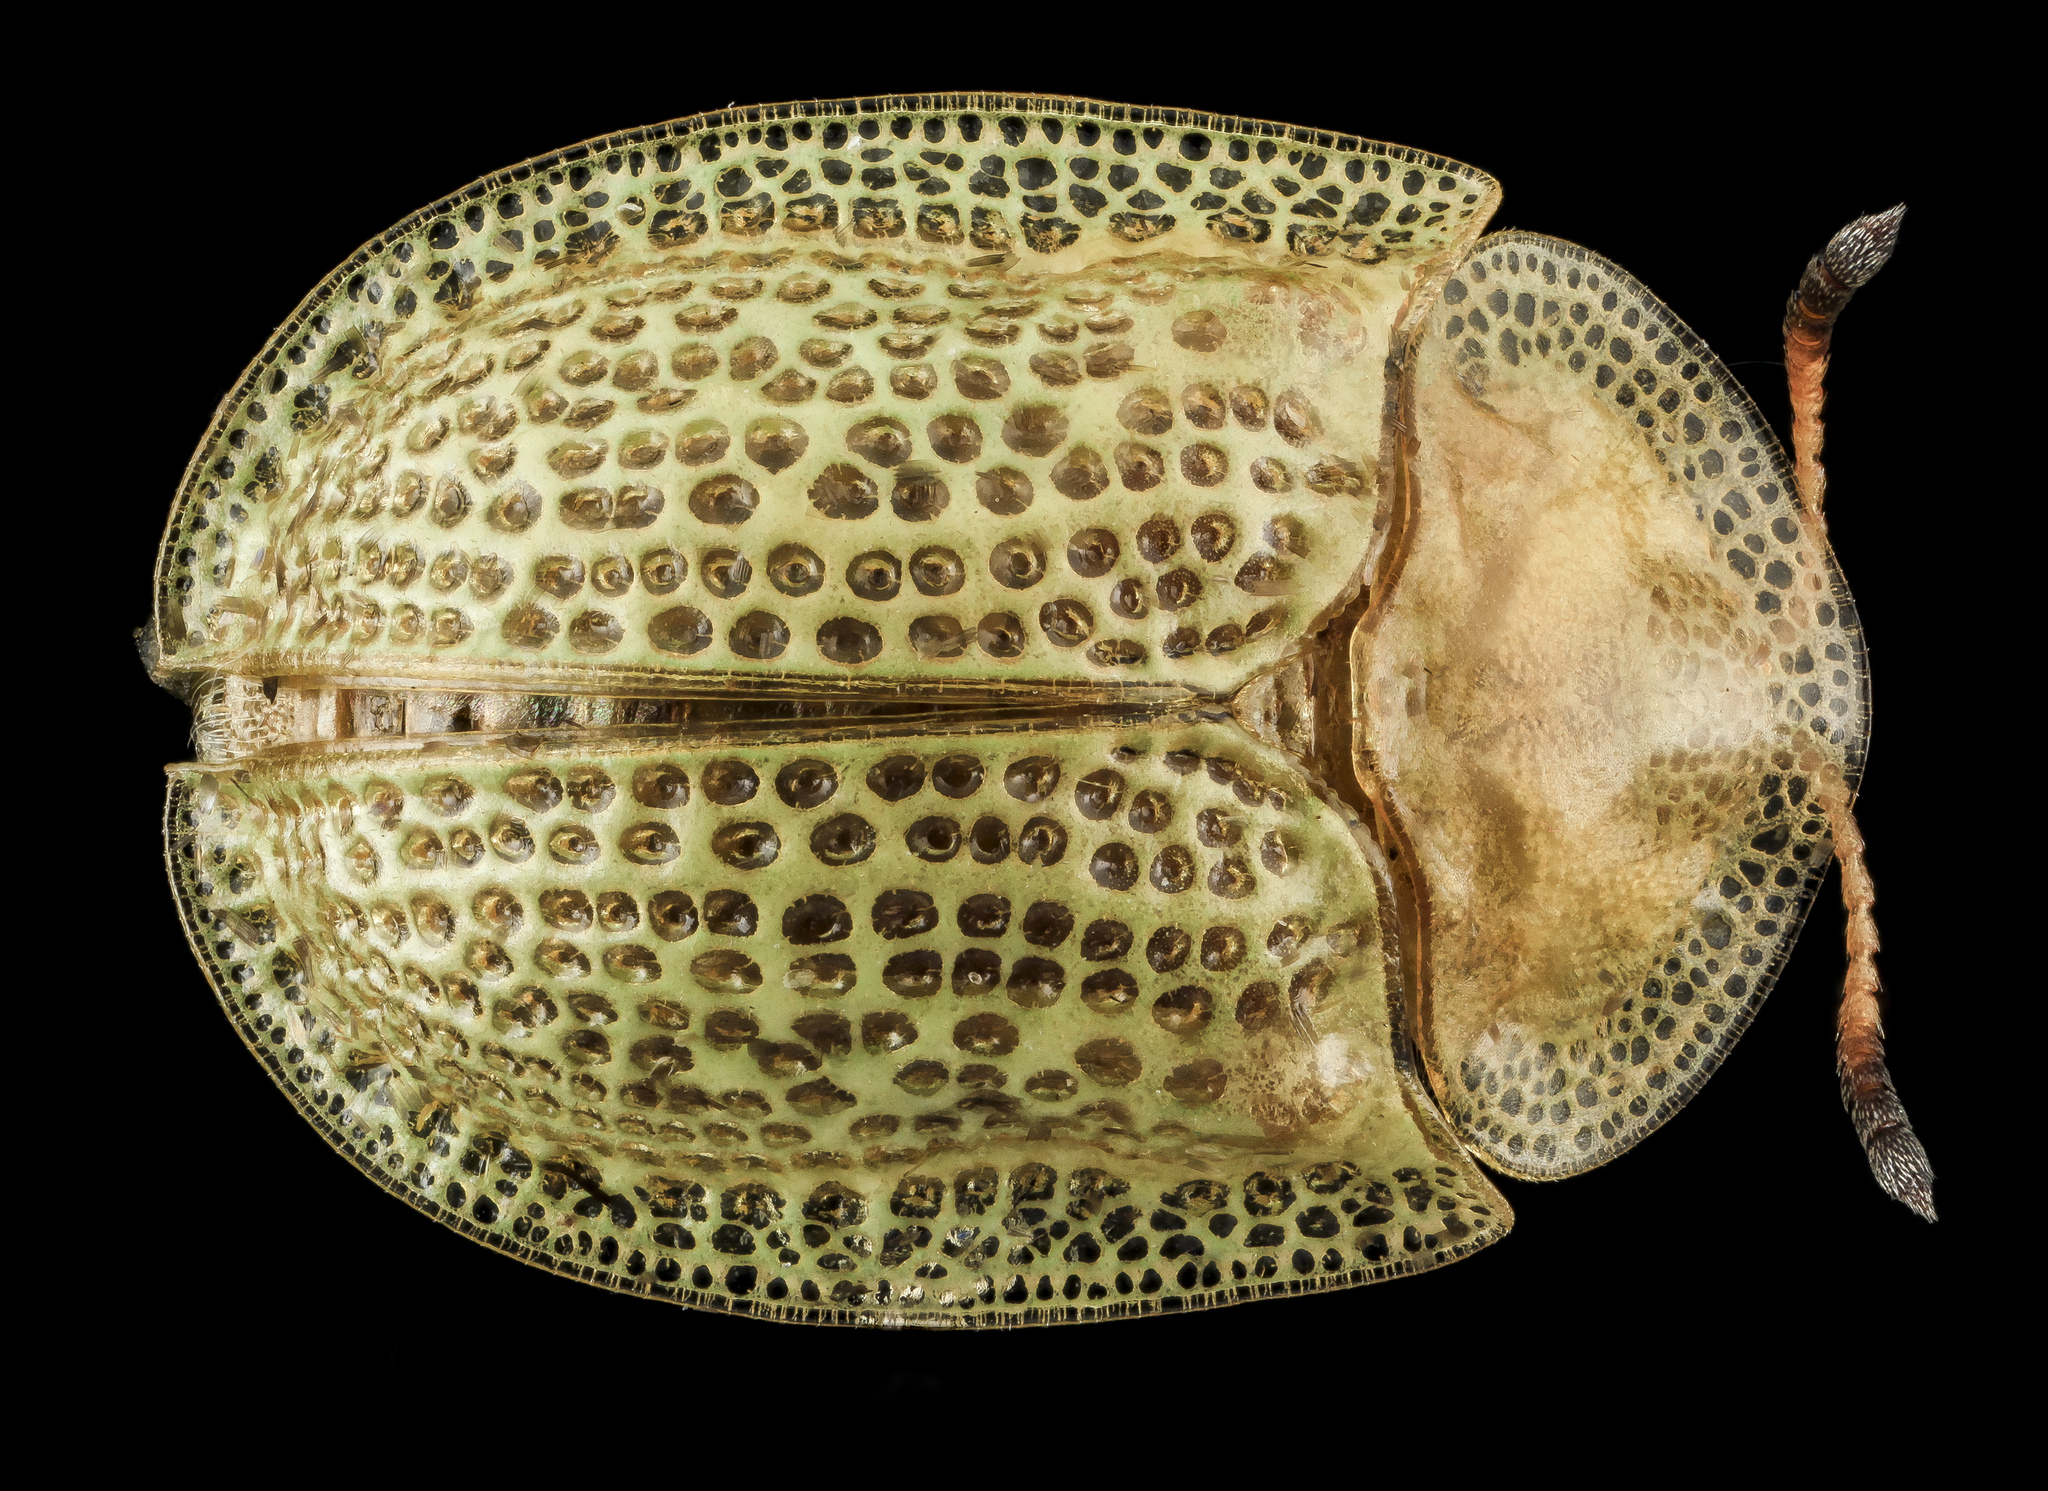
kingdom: Animalia
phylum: Arthropoda
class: Insecta
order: Coleoptera
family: Chrysomelidae
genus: Gratiana
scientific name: Gratiana pallidula
